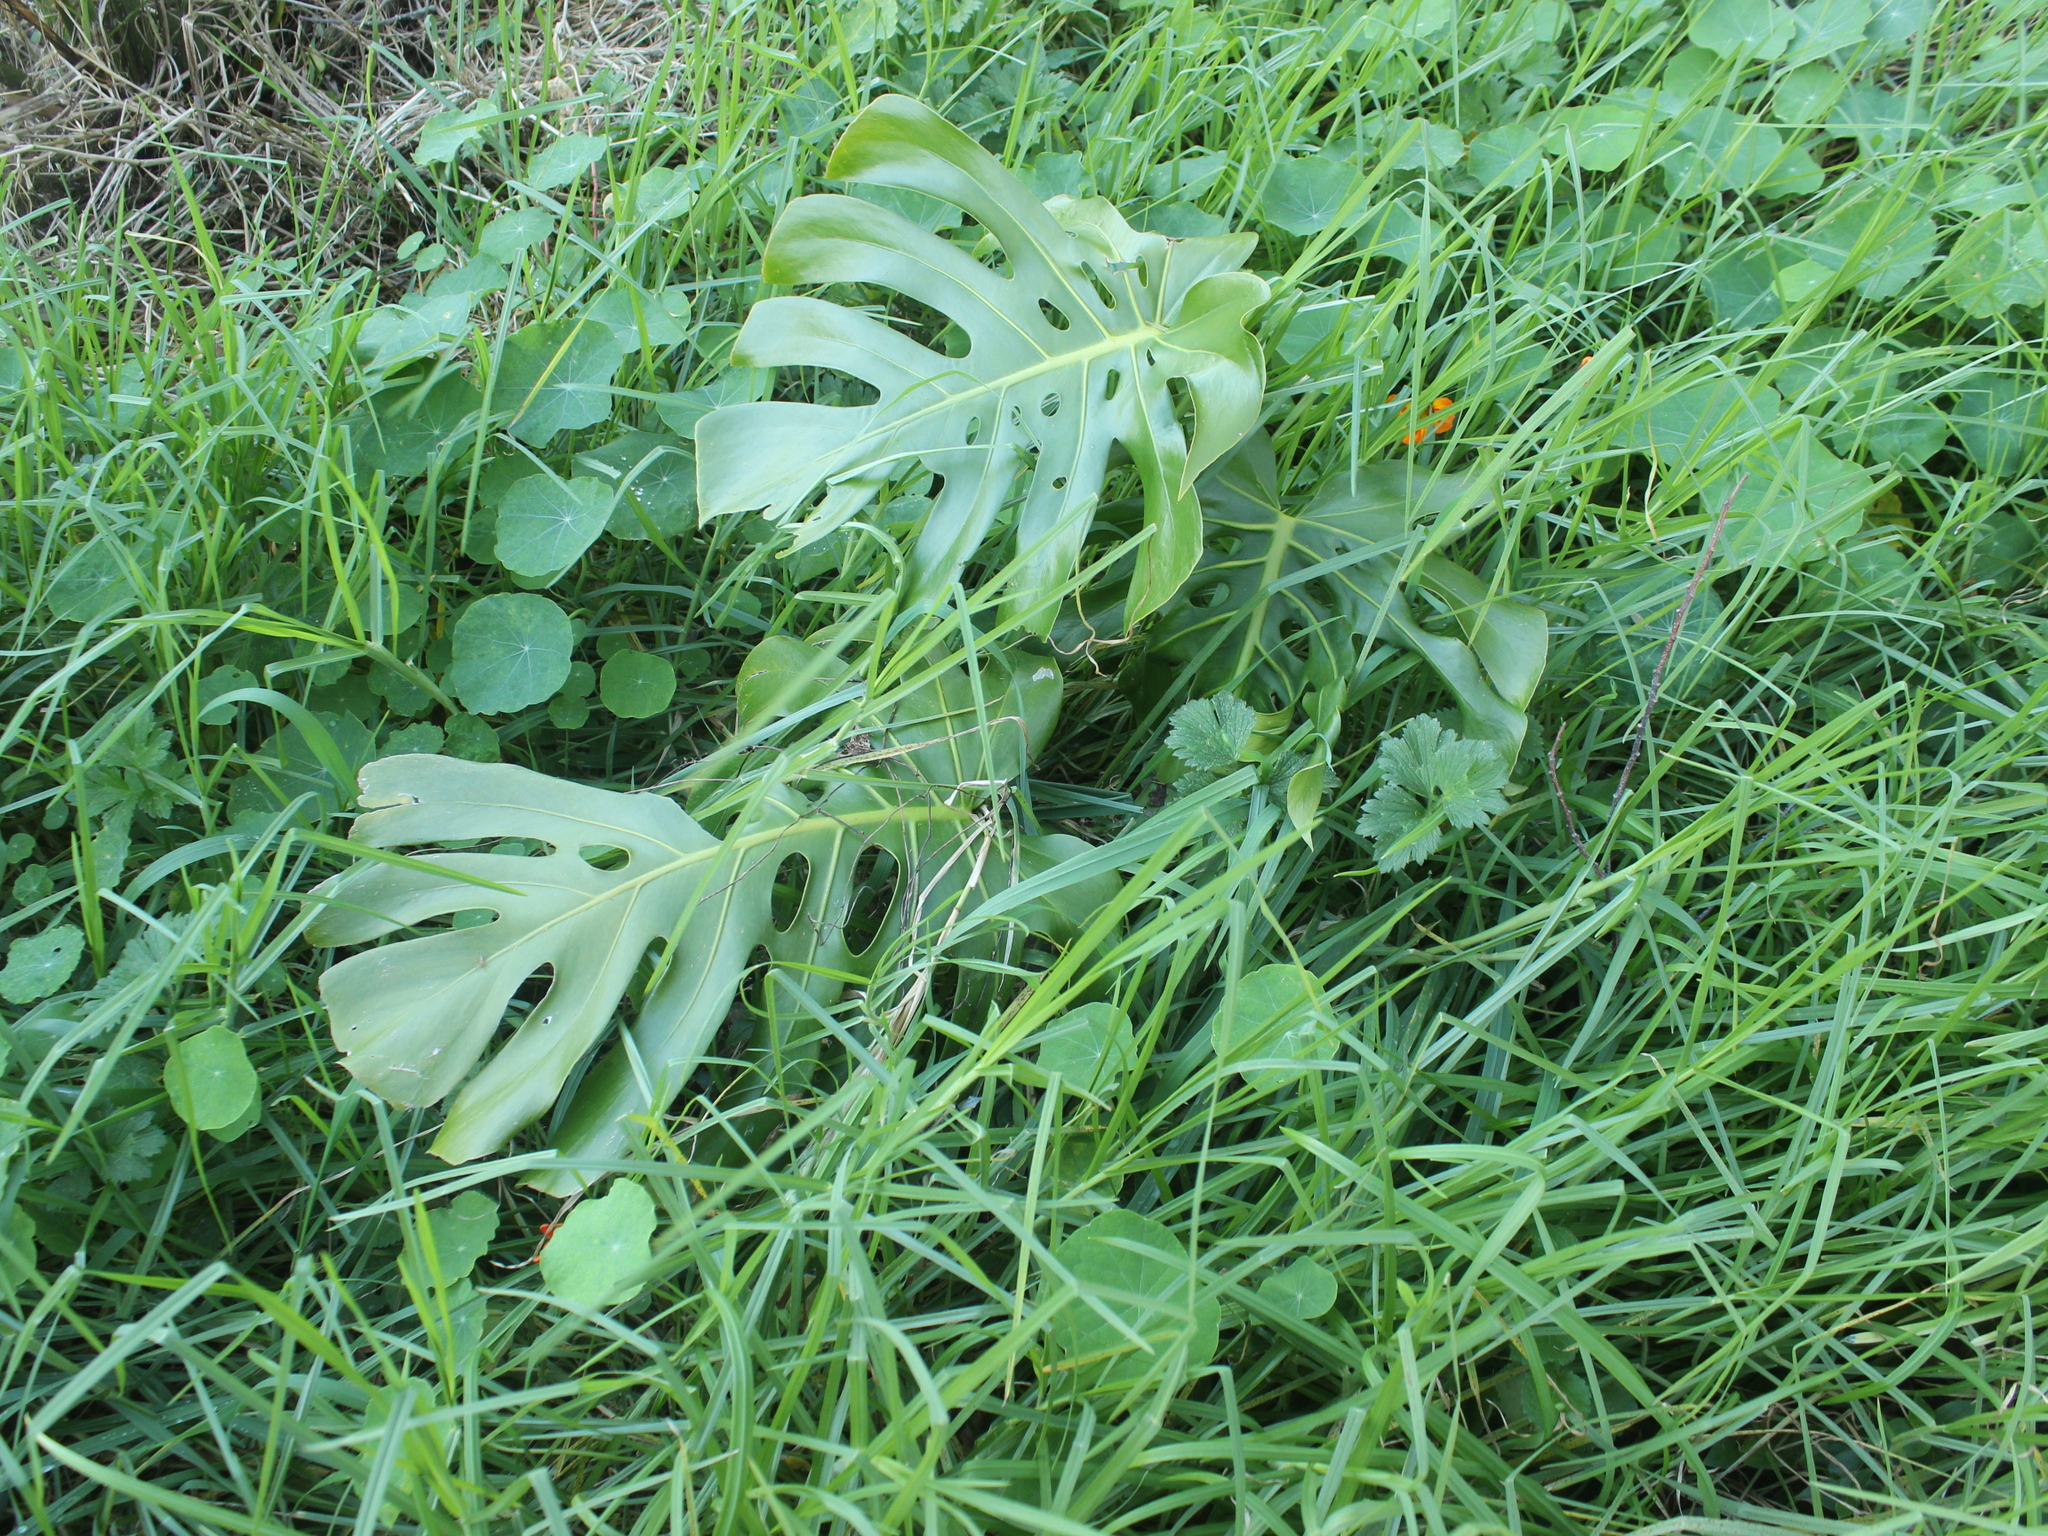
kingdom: Plantae
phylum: Tracheophyta
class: Liliopsida
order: Alismatales
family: Araceae
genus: Monstera
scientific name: Monstera deliciosa
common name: Cut-leaf-philodendron
